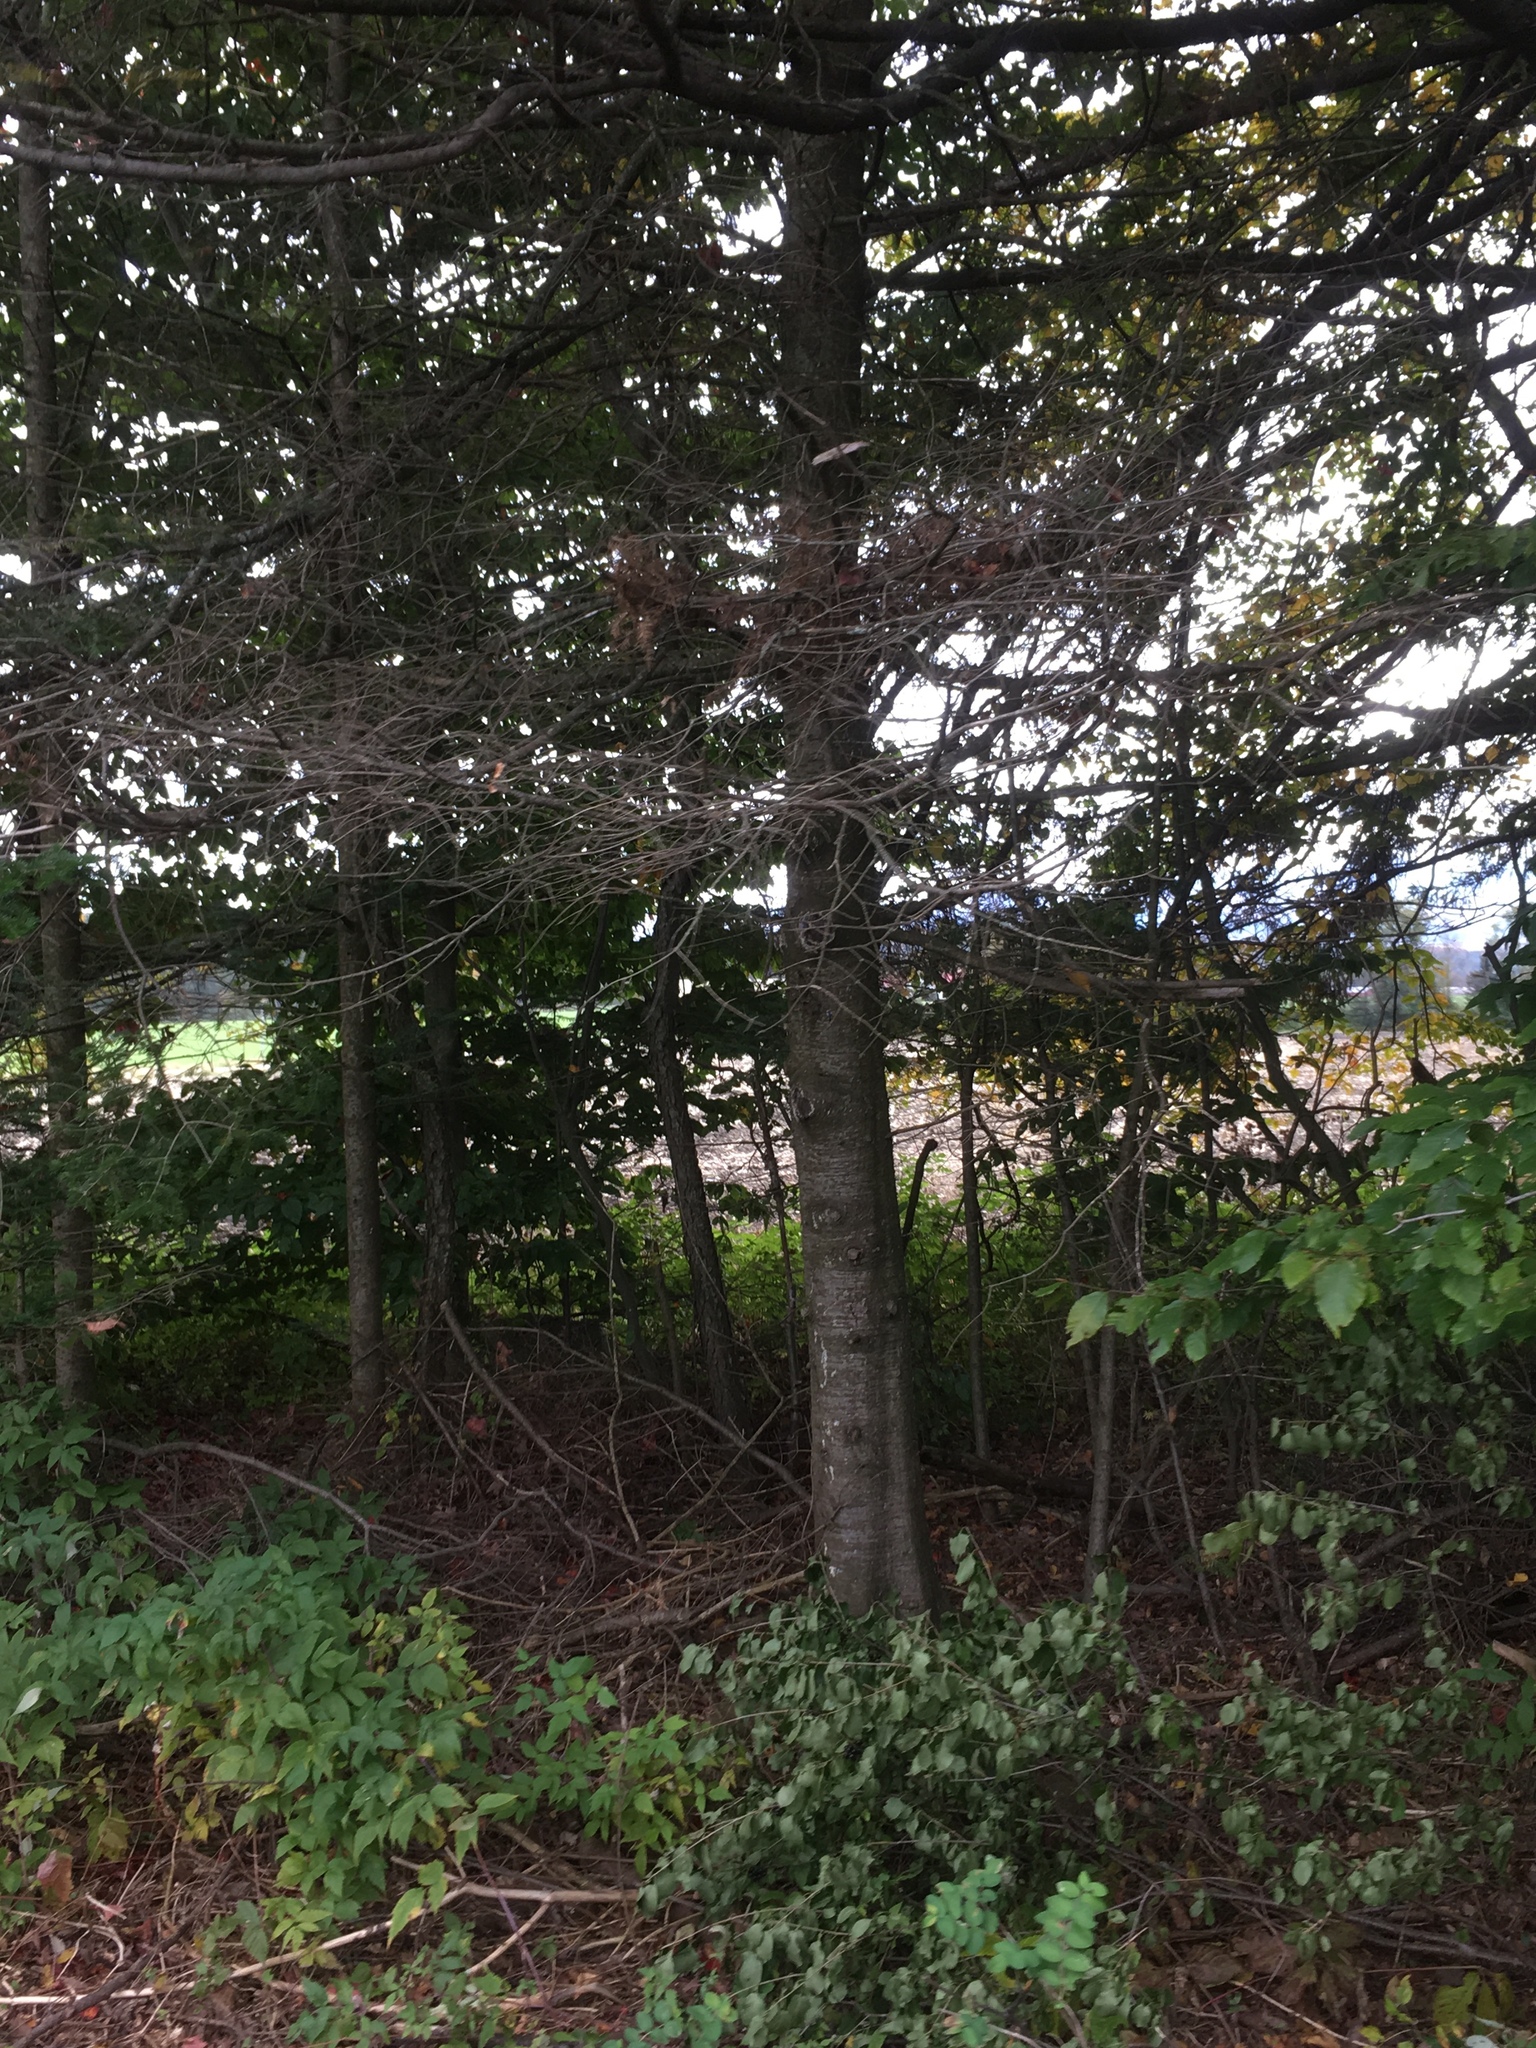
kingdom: Plantae
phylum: Tracheophyta
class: Pinopsida
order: Pinales
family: Pinaceae
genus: Abies
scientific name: Abies balsamea
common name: Balsam fir
